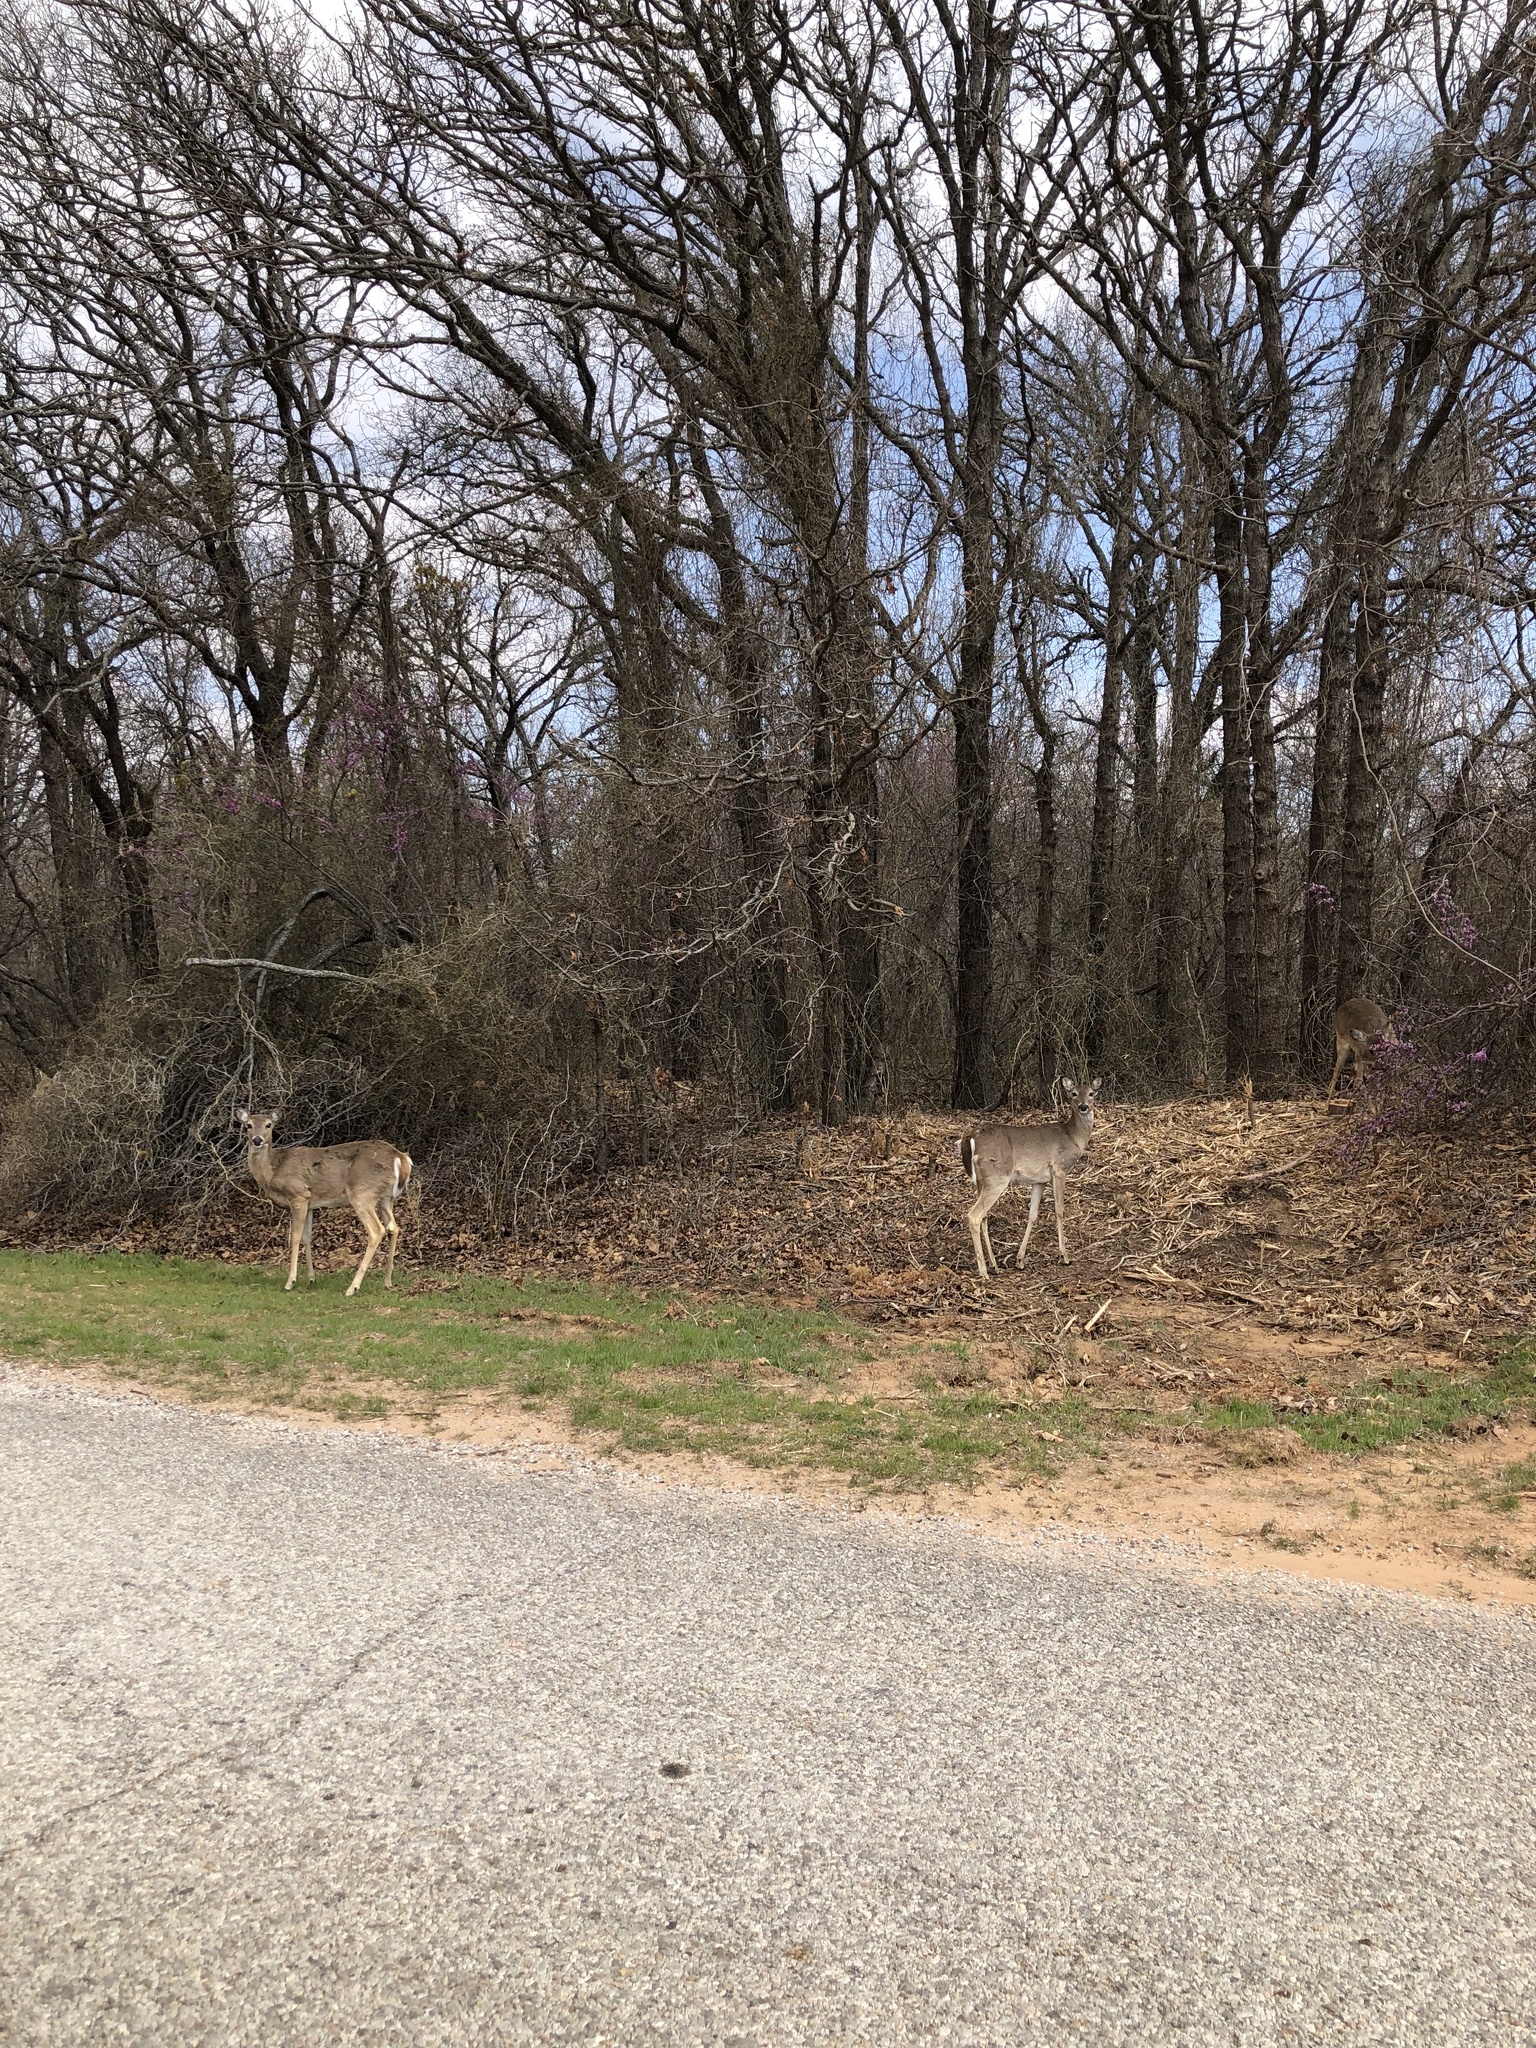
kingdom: Animalia
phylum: Chordata
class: Mammalia
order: Artiodactyla
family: Cervidae
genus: Odocoileus
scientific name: Odocoileus virginianus
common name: White-tailed deer
